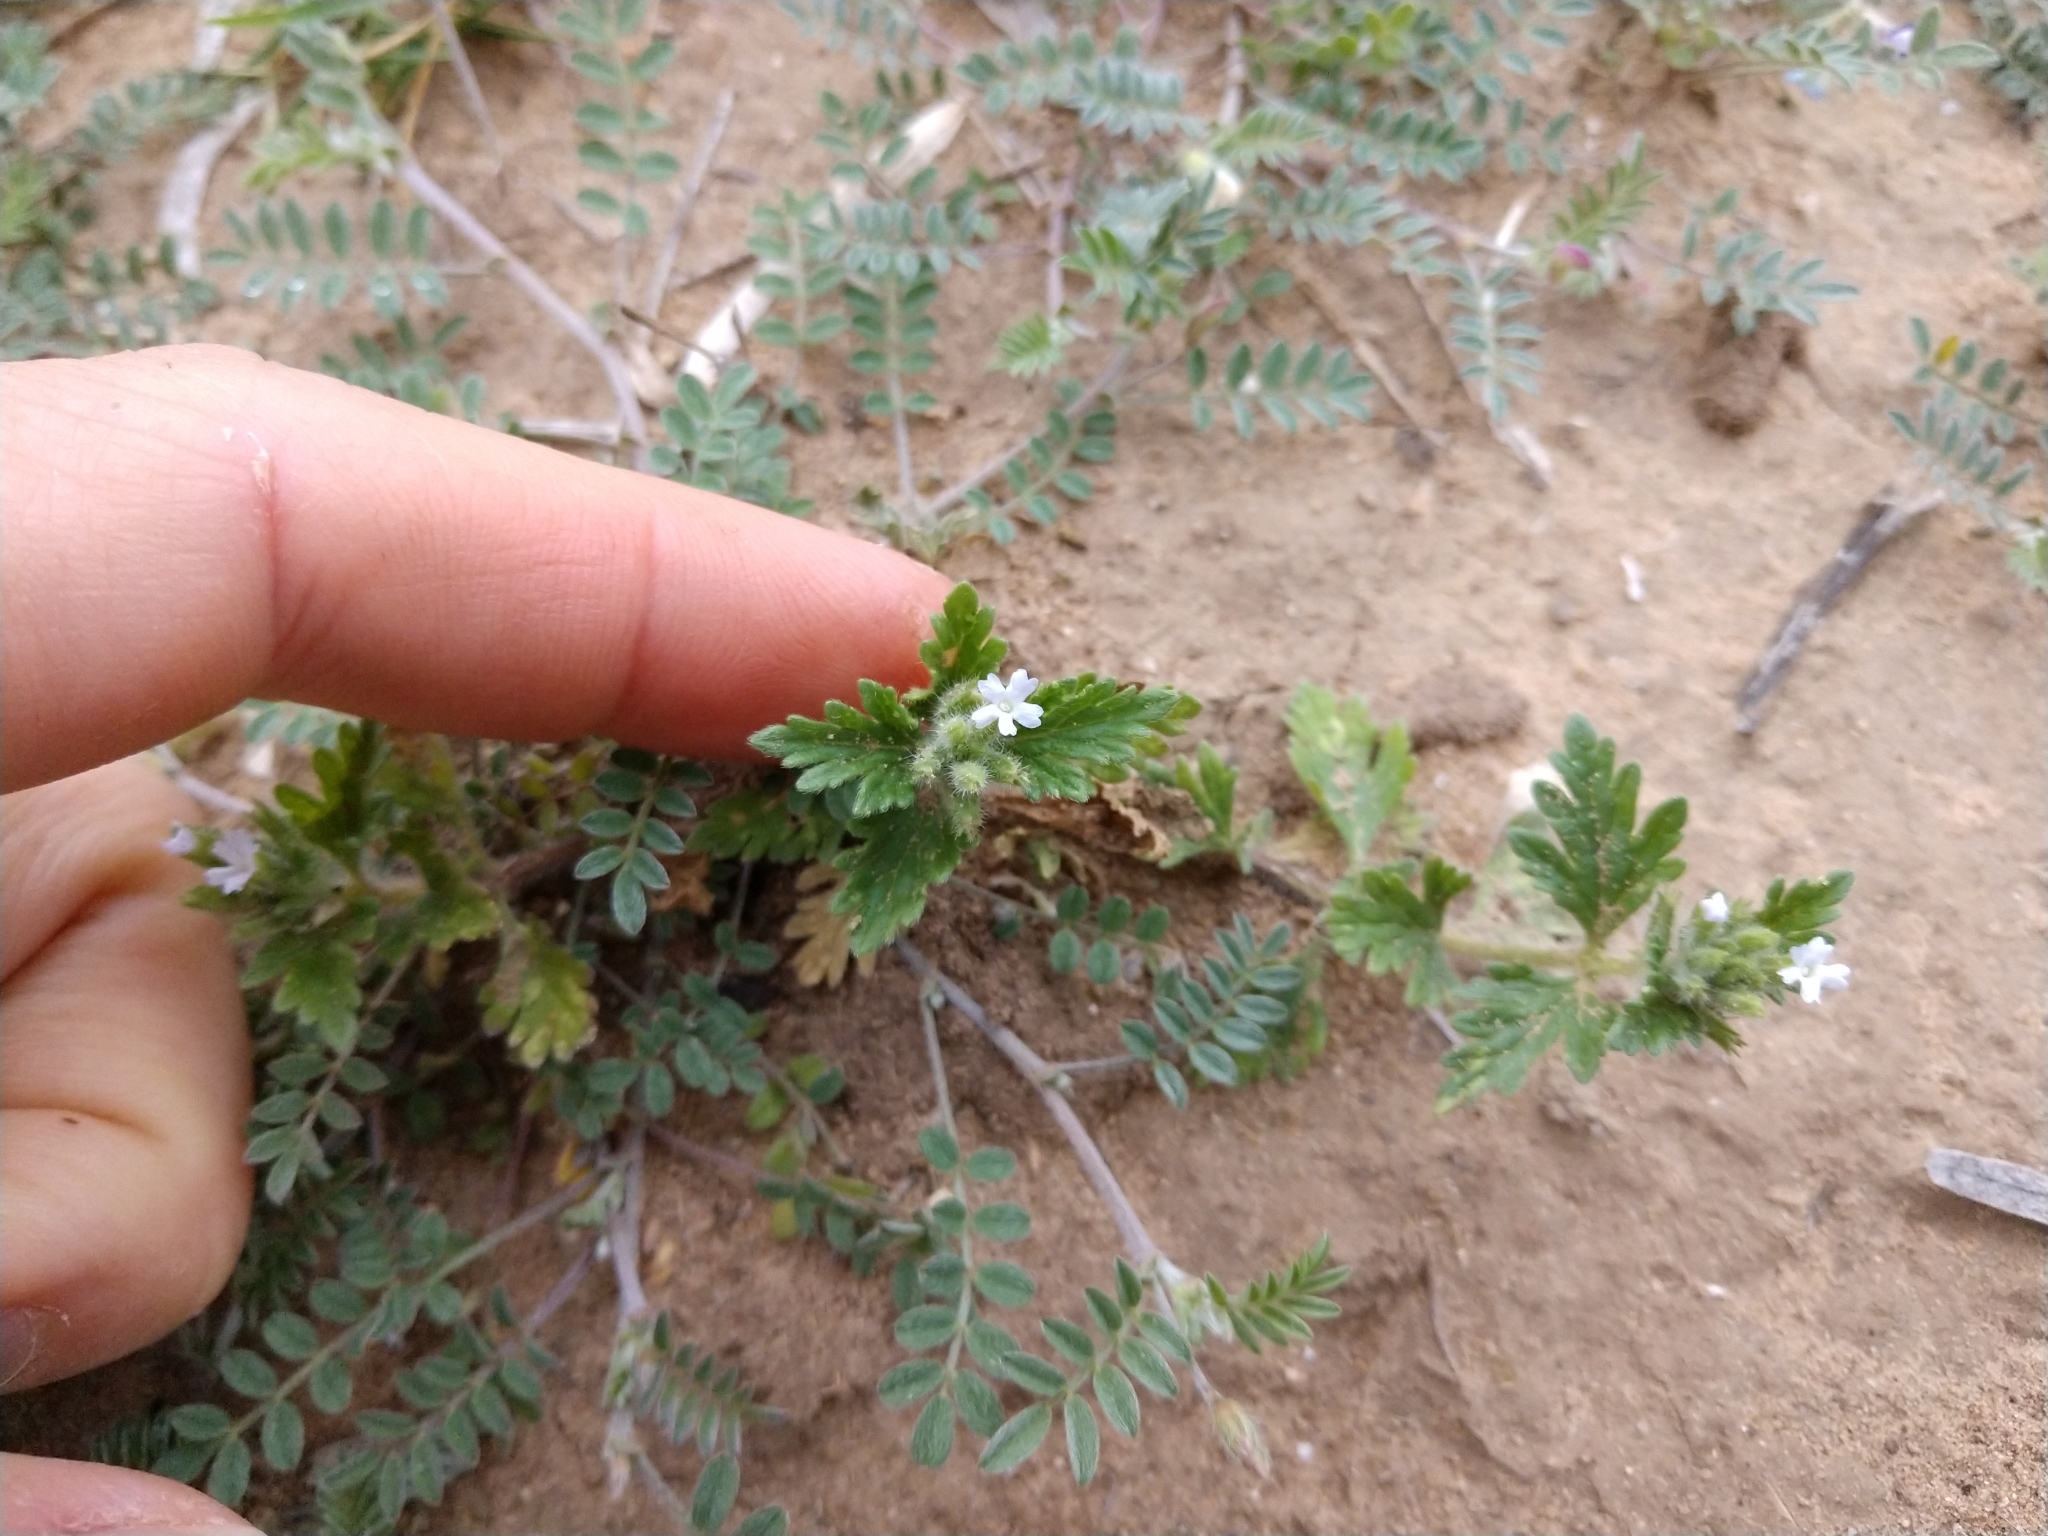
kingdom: Plantae
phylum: Tracheophyta
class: Magnoliopsida
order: Lamiales
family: Verbenaceae
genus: Verbena
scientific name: Verbena quadrangulata
